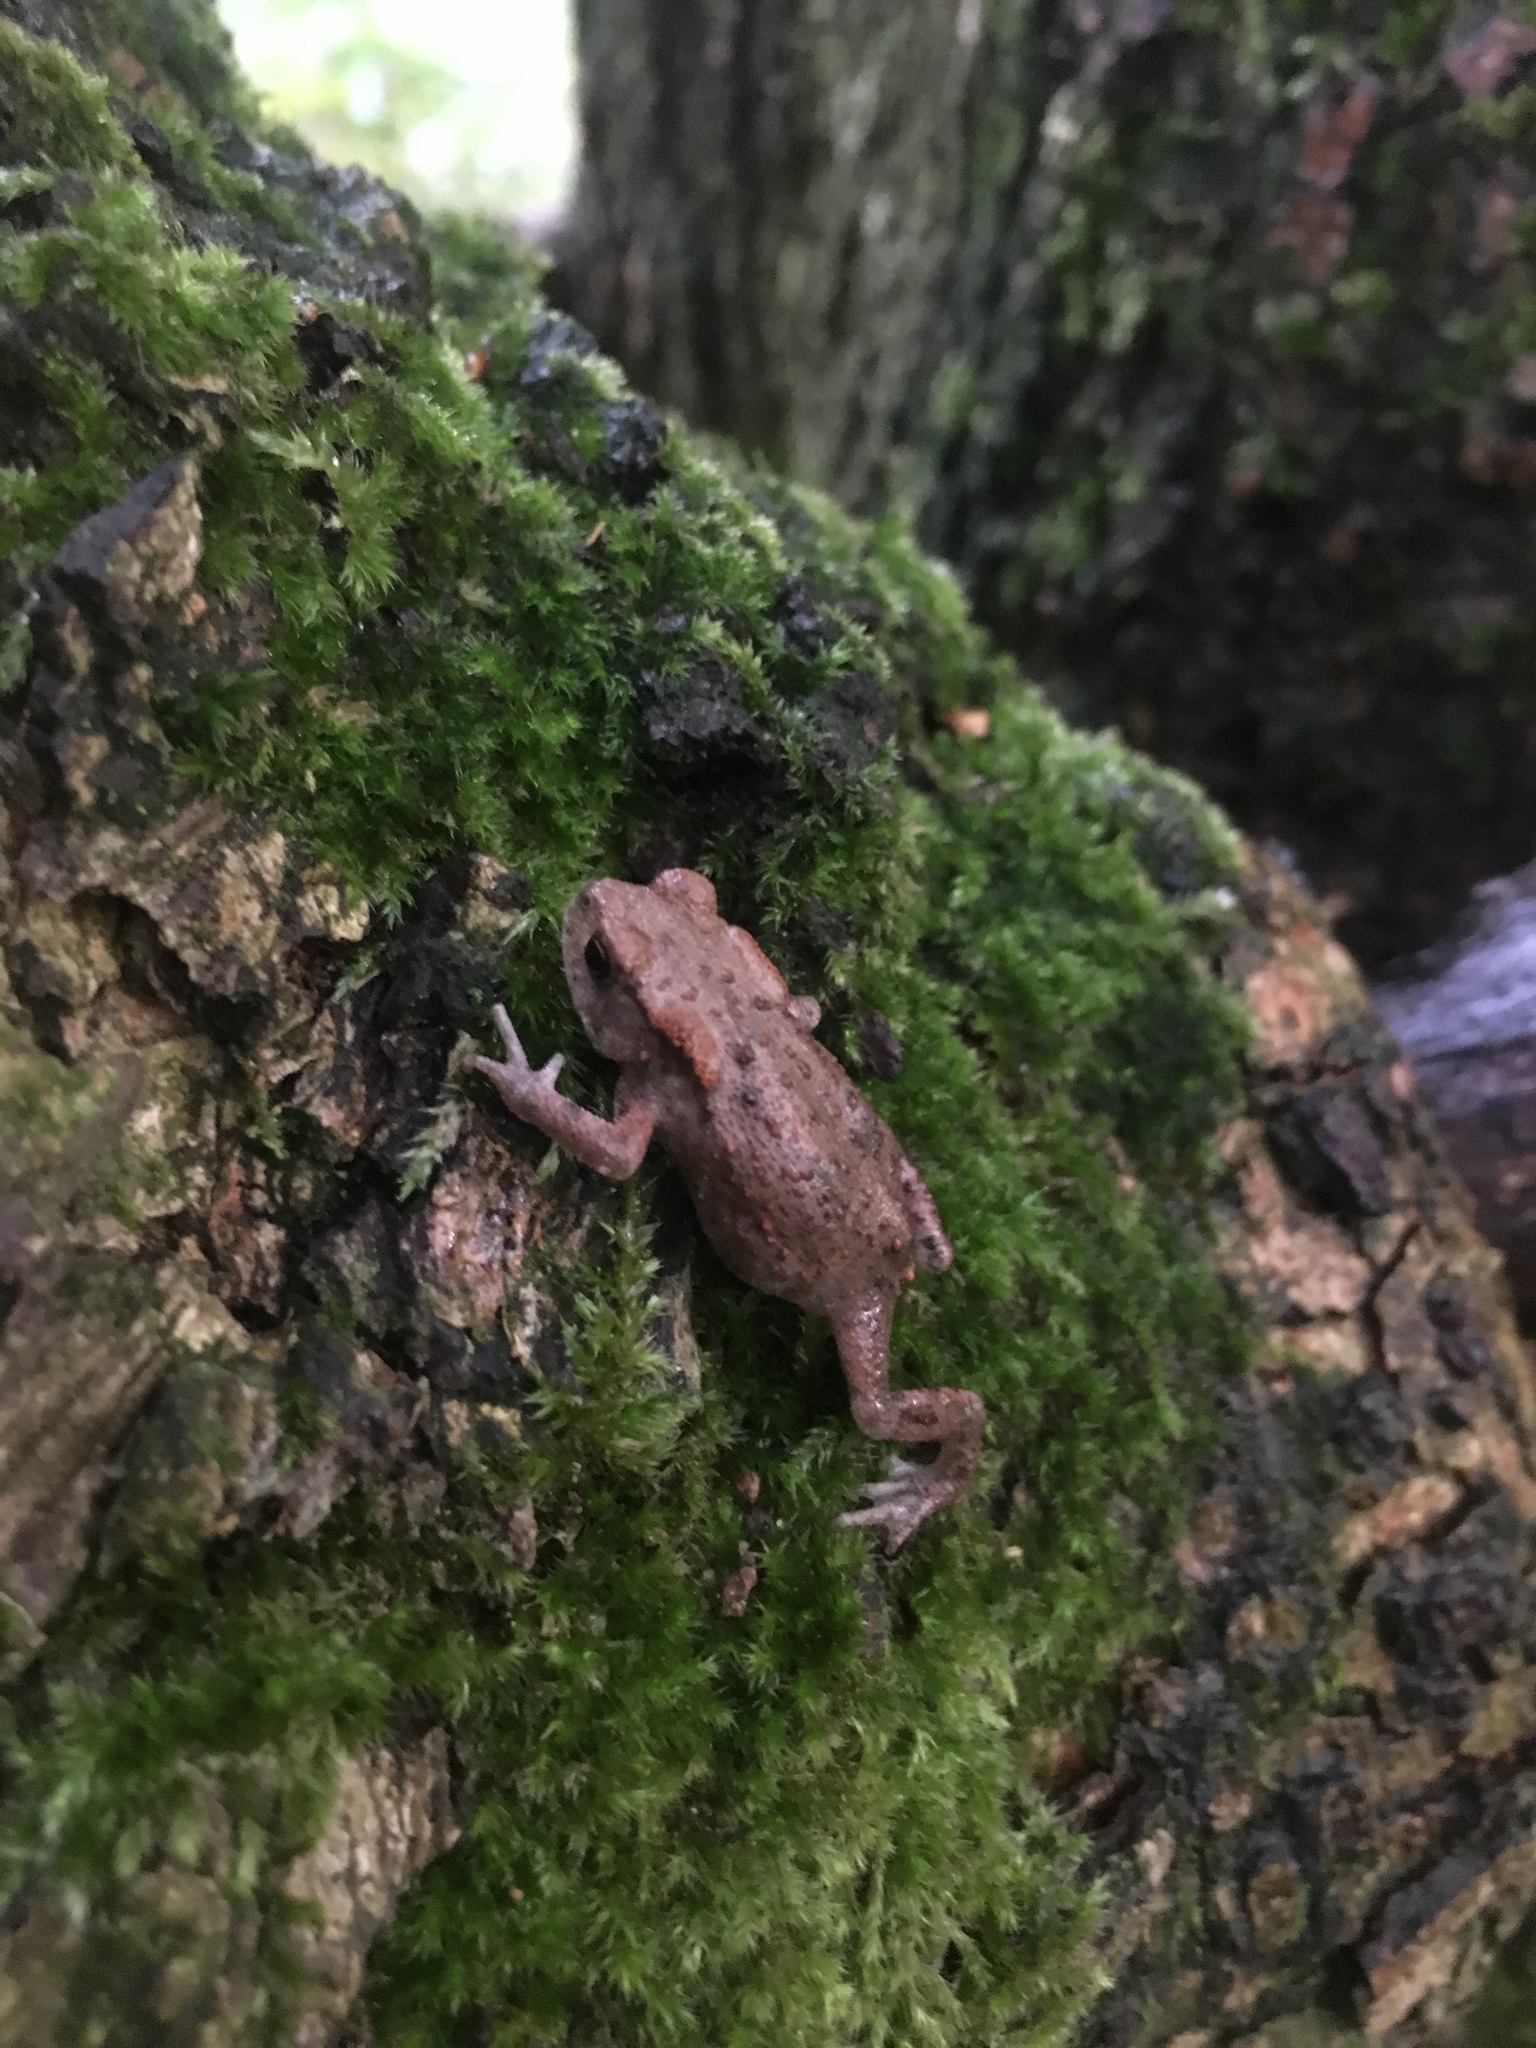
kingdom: Animalia
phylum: Chordata
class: Amphibia
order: Anura
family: Bufonidae
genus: Bufo
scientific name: Bufo bufo
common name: Common toad
